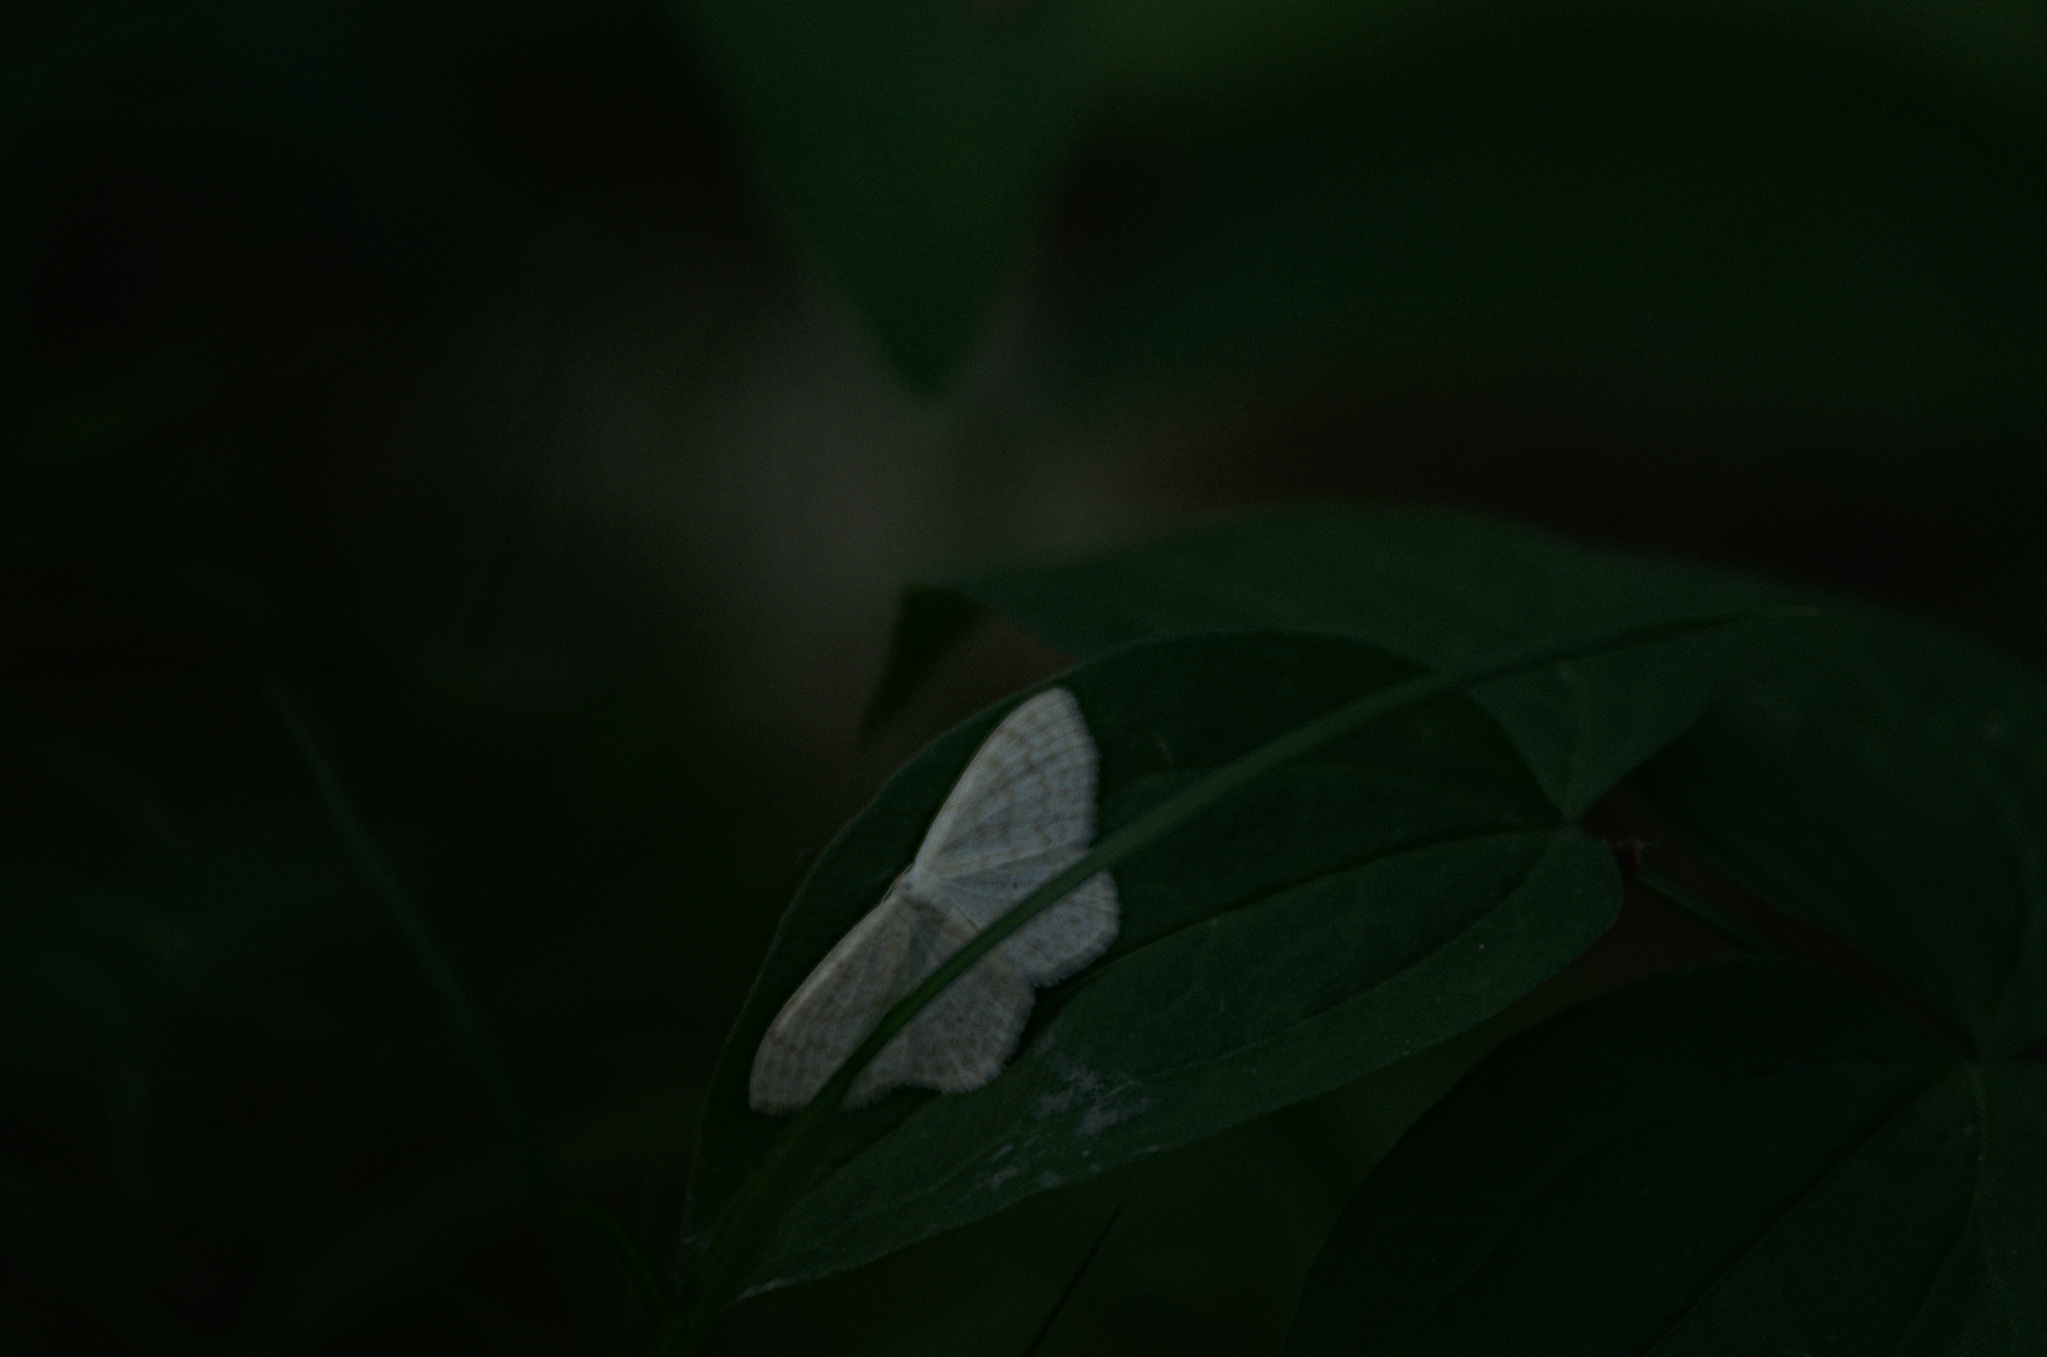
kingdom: Animalia
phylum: Arthropoda
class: Insecta
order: Lepidoptera
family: Geometridae
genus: Scopula
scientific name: Scopula floslactata
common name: Cream wave
